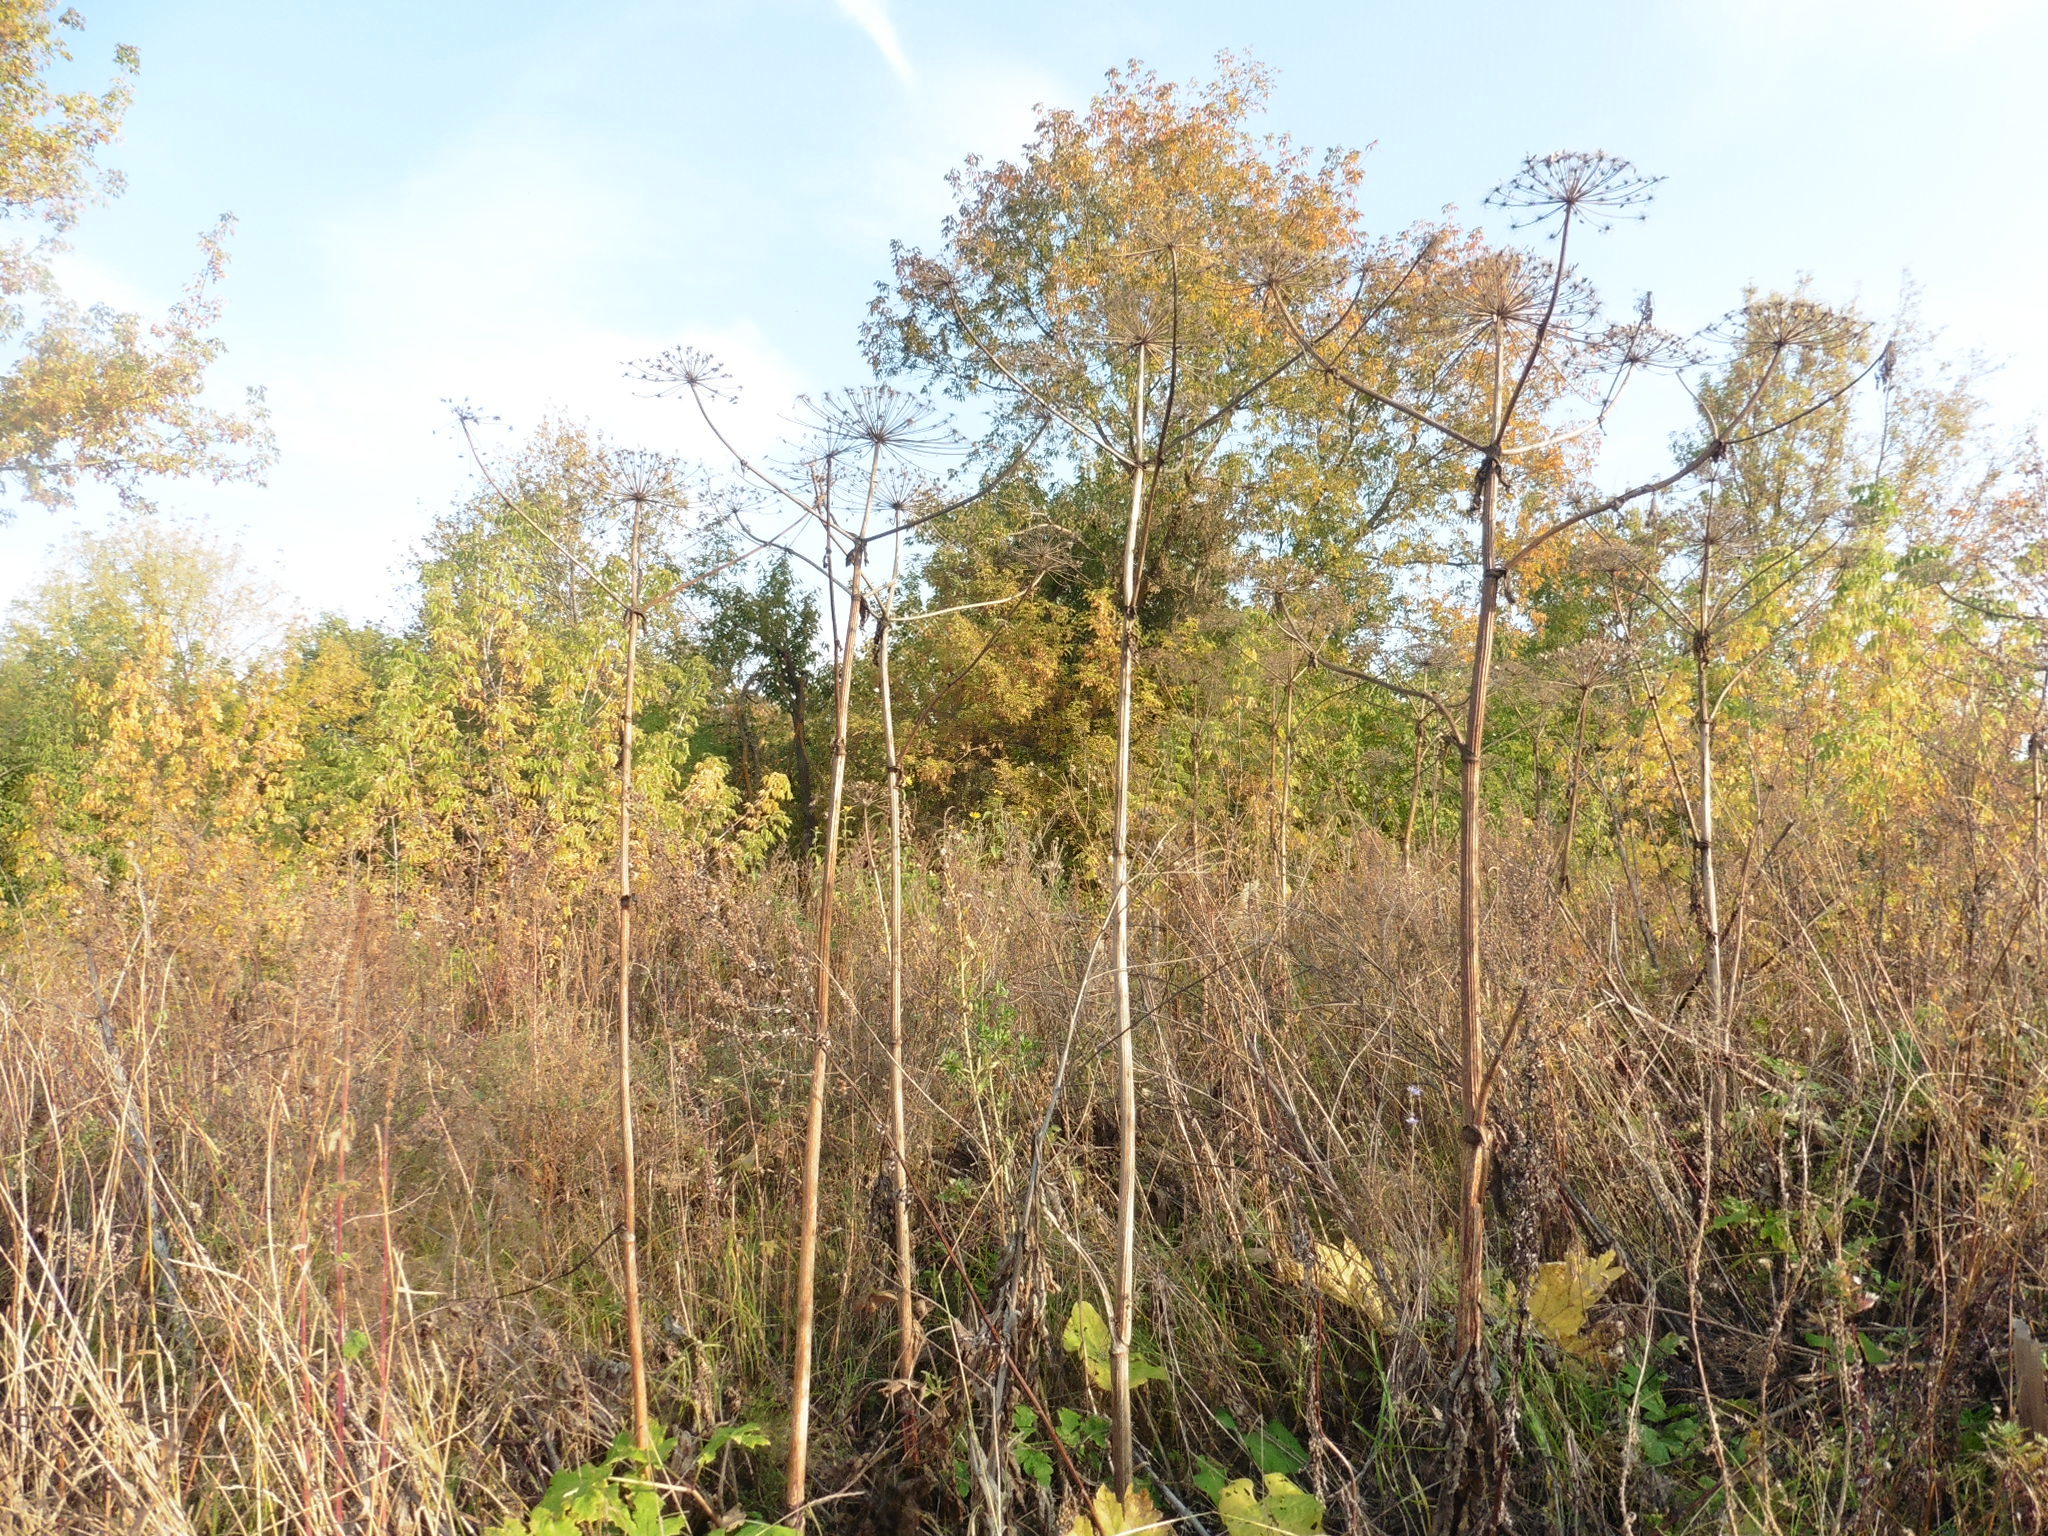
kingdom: Plantae
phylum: Tracheophyta
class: Magnoliopsida
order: Apiales
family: Apiaceae
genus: Heracleum
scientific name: Heracleum sosnowskyi
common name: Sosnowsky's hogweed
